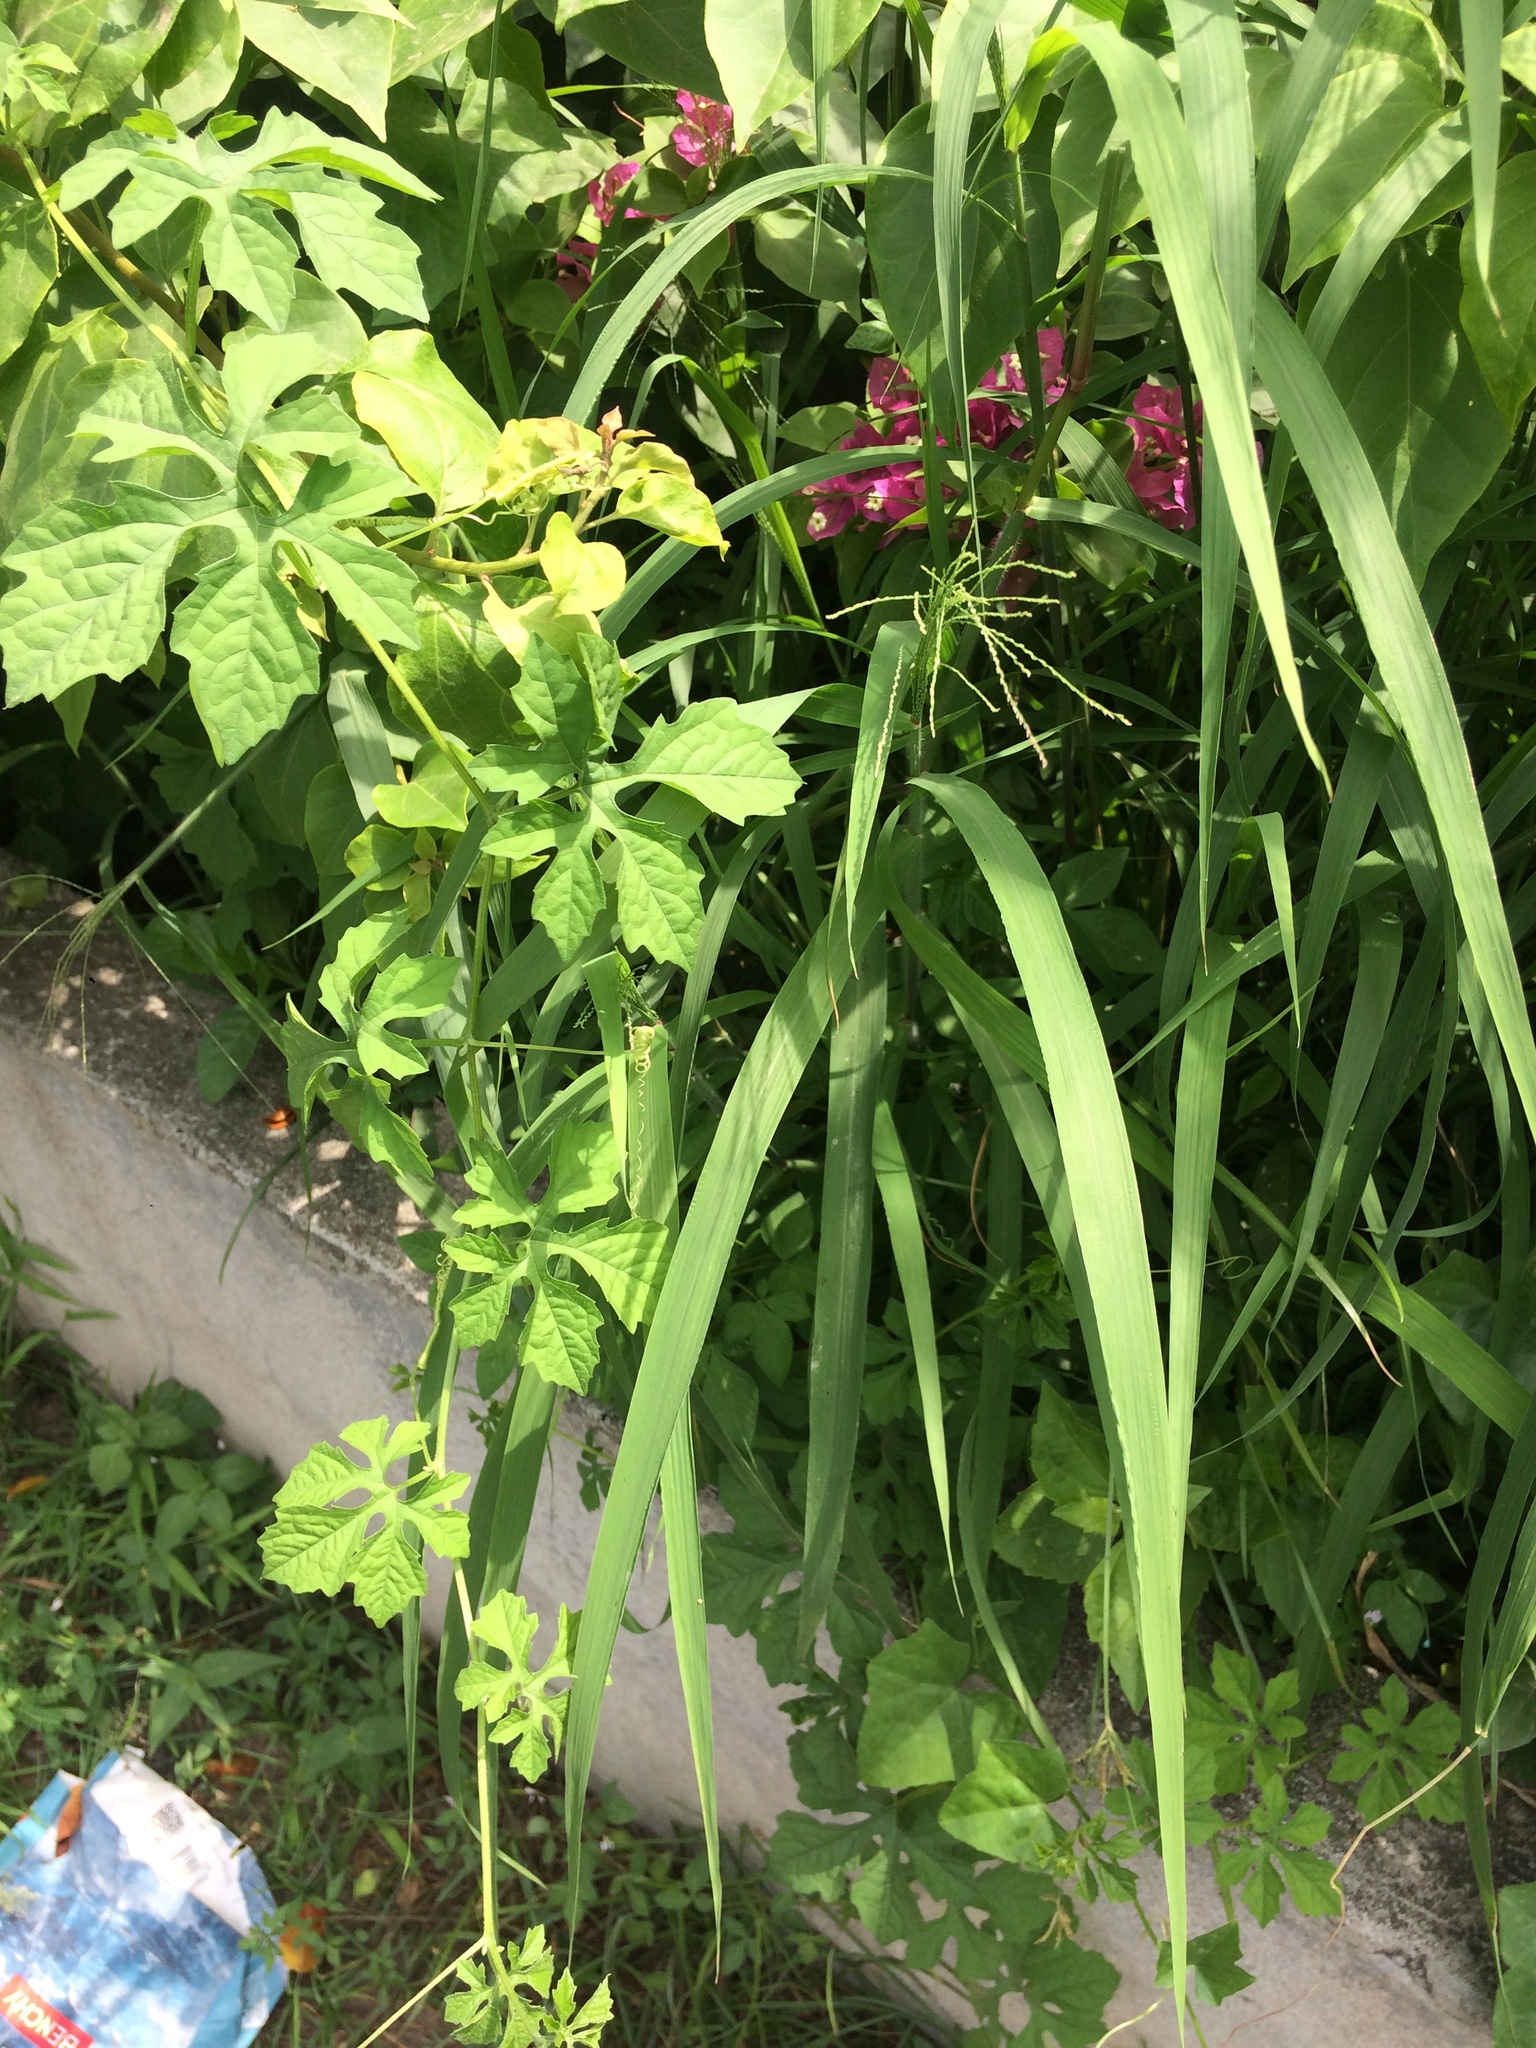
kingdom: Plantae
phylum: Tracheophyta
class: Magnoliopsida
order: Cucurbitales
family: Cucurbitaceae
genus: Momordica
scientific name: Momordica charantia
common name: Balsampear
